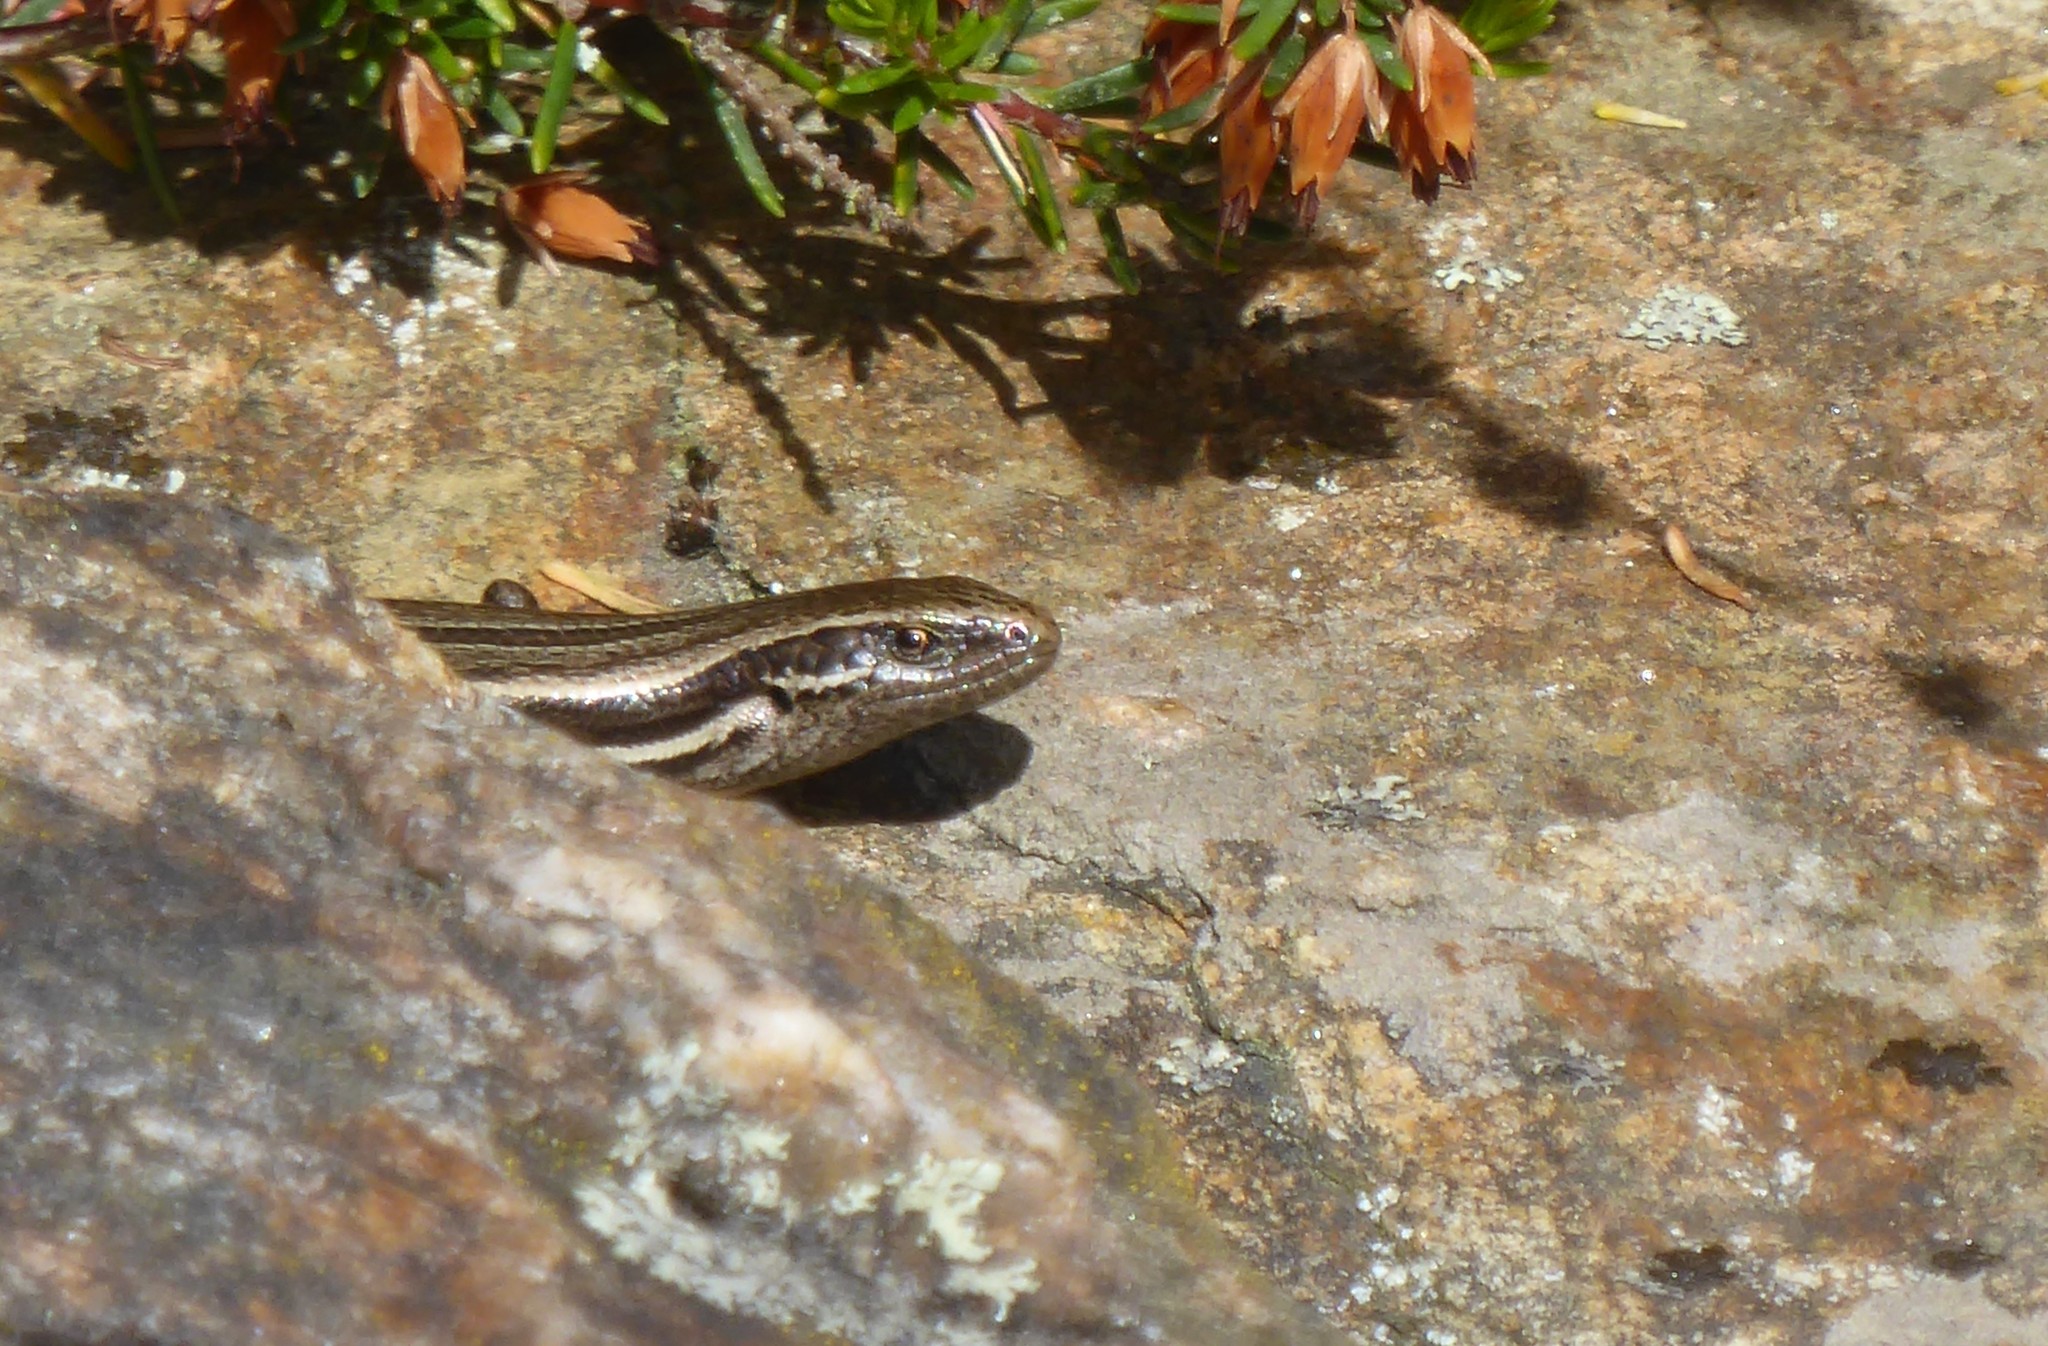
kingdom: Animalia
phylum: Chordata
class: Squamata
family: Scincidae
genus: Oligosoma
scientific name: Oligosoma polychroma
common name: Common new zealand skink
